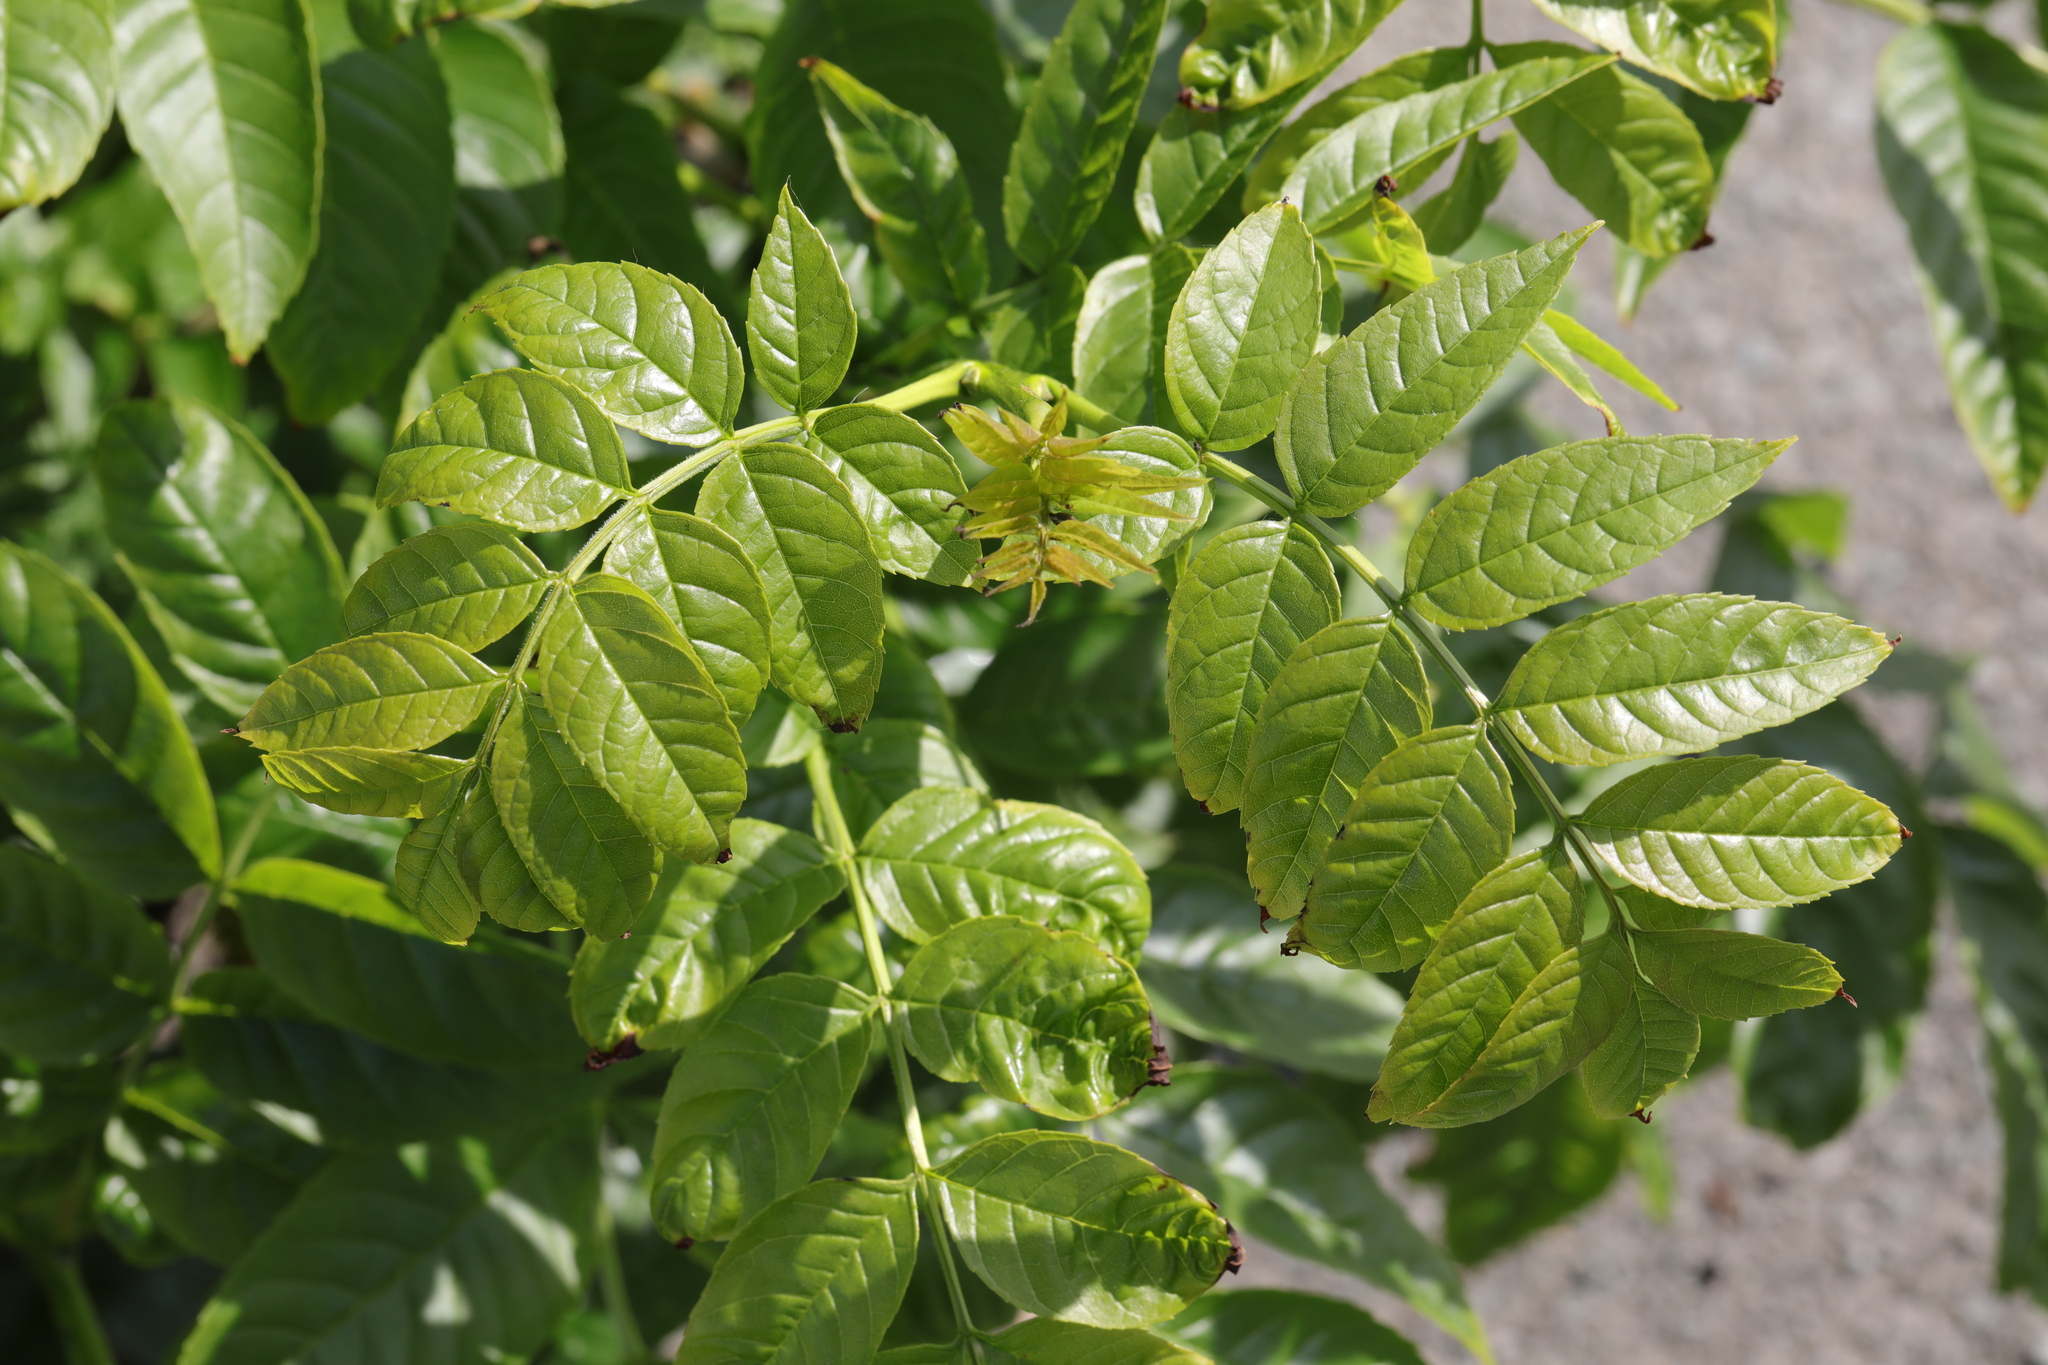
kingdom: Plantae
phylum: Tracheophyta
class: Magnoliopsida
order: Lamiales
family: Oleaceae
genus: Fraxinus
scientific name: Fraxinus excelsior
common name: European ash
